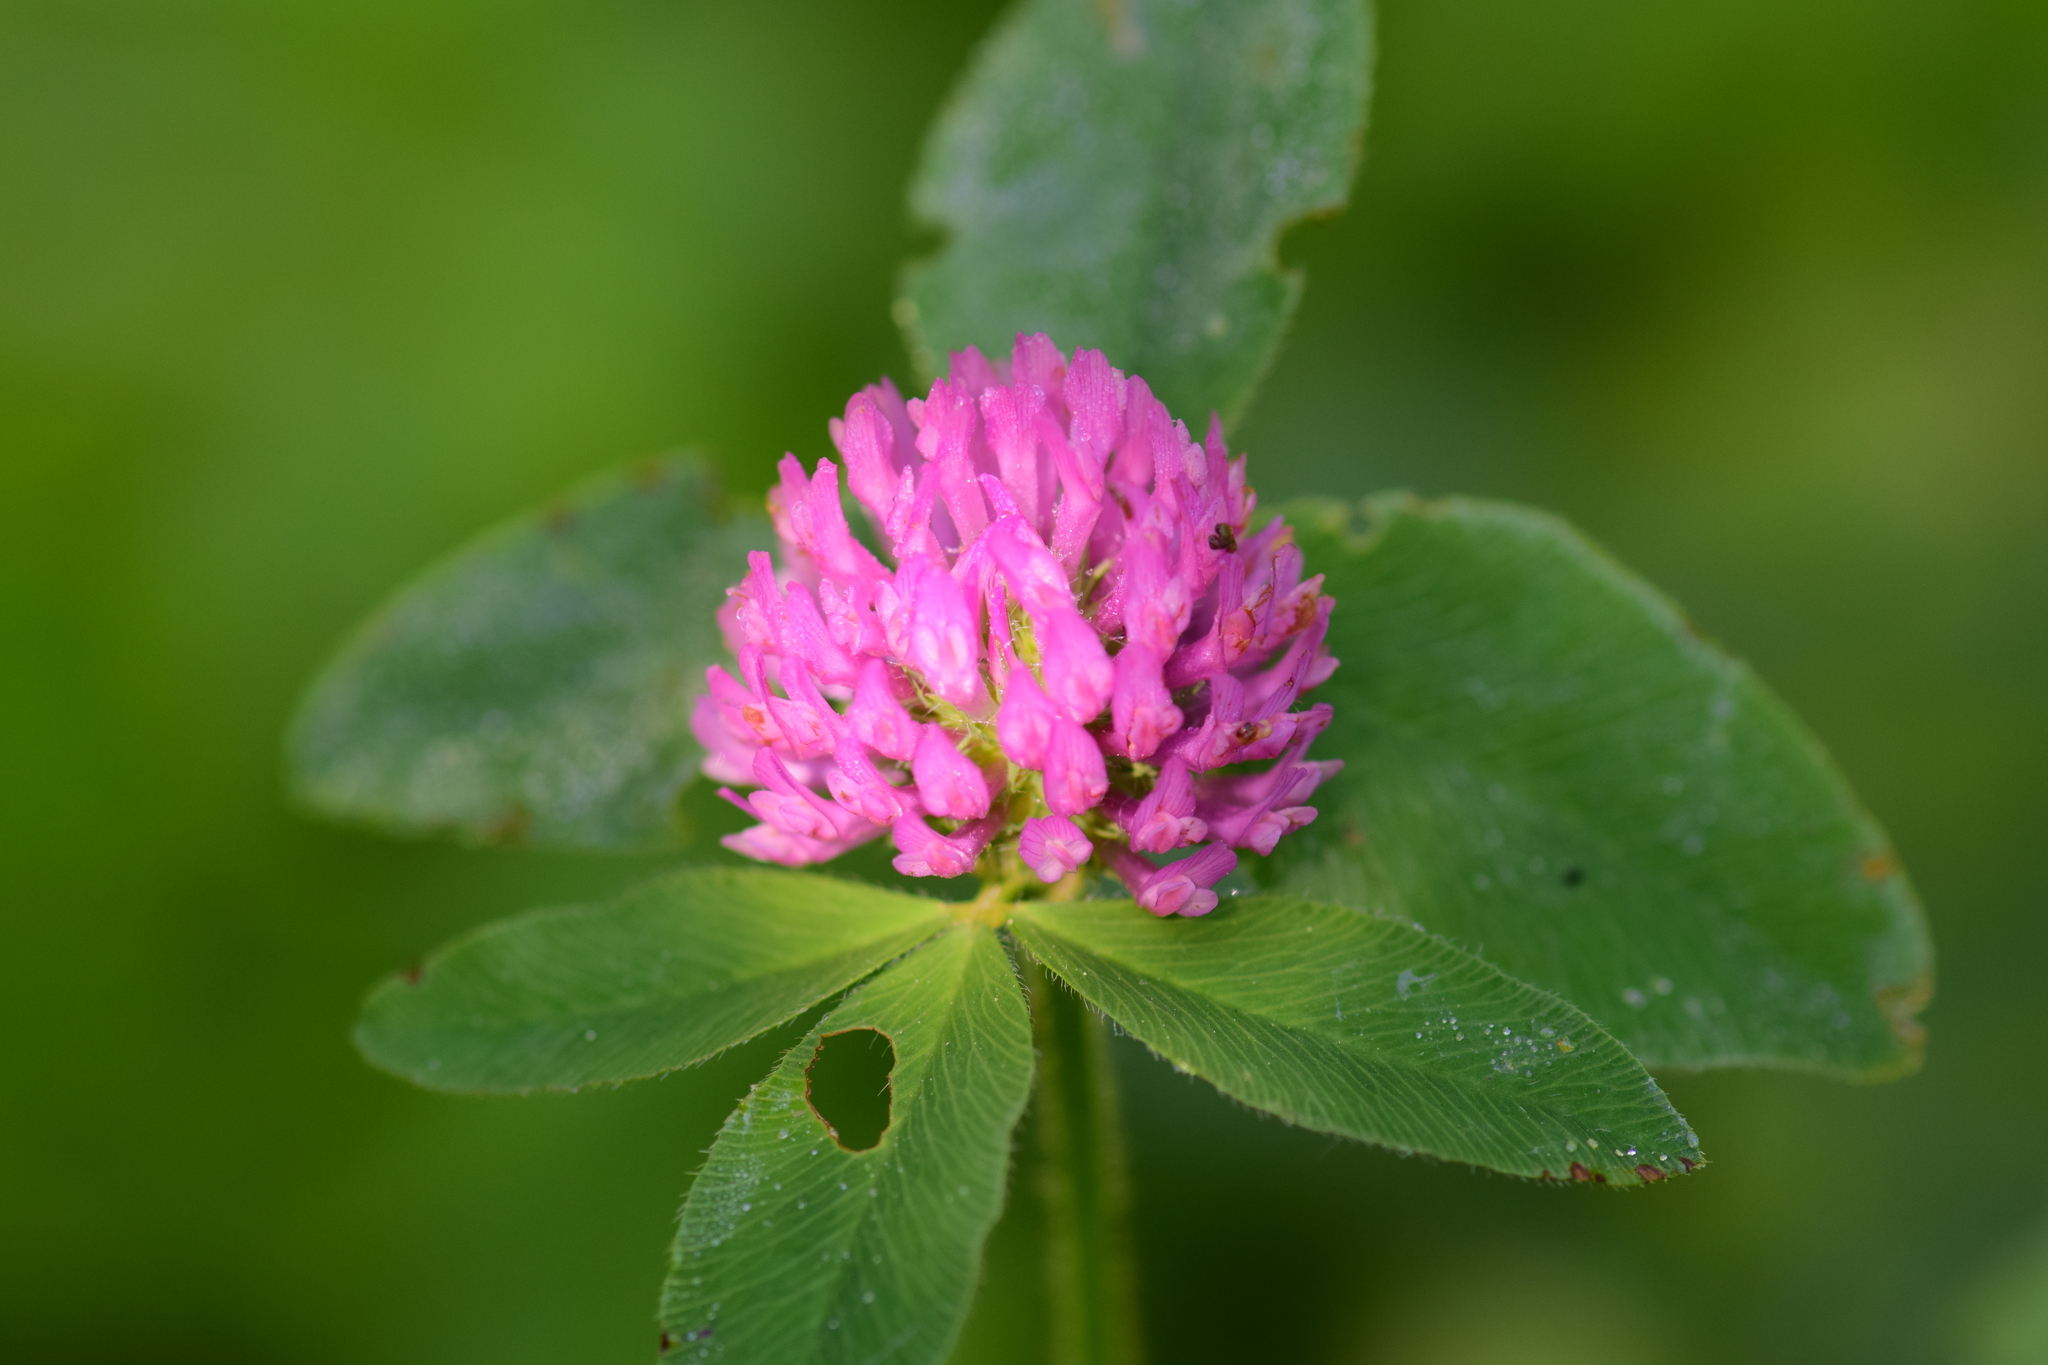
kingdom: Plantae
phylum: Tracheophyta
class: Magnoliopsida
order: Fabales
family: Fabaceae
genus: Trifolium
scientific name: Trifolium pratense
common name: Red clover
